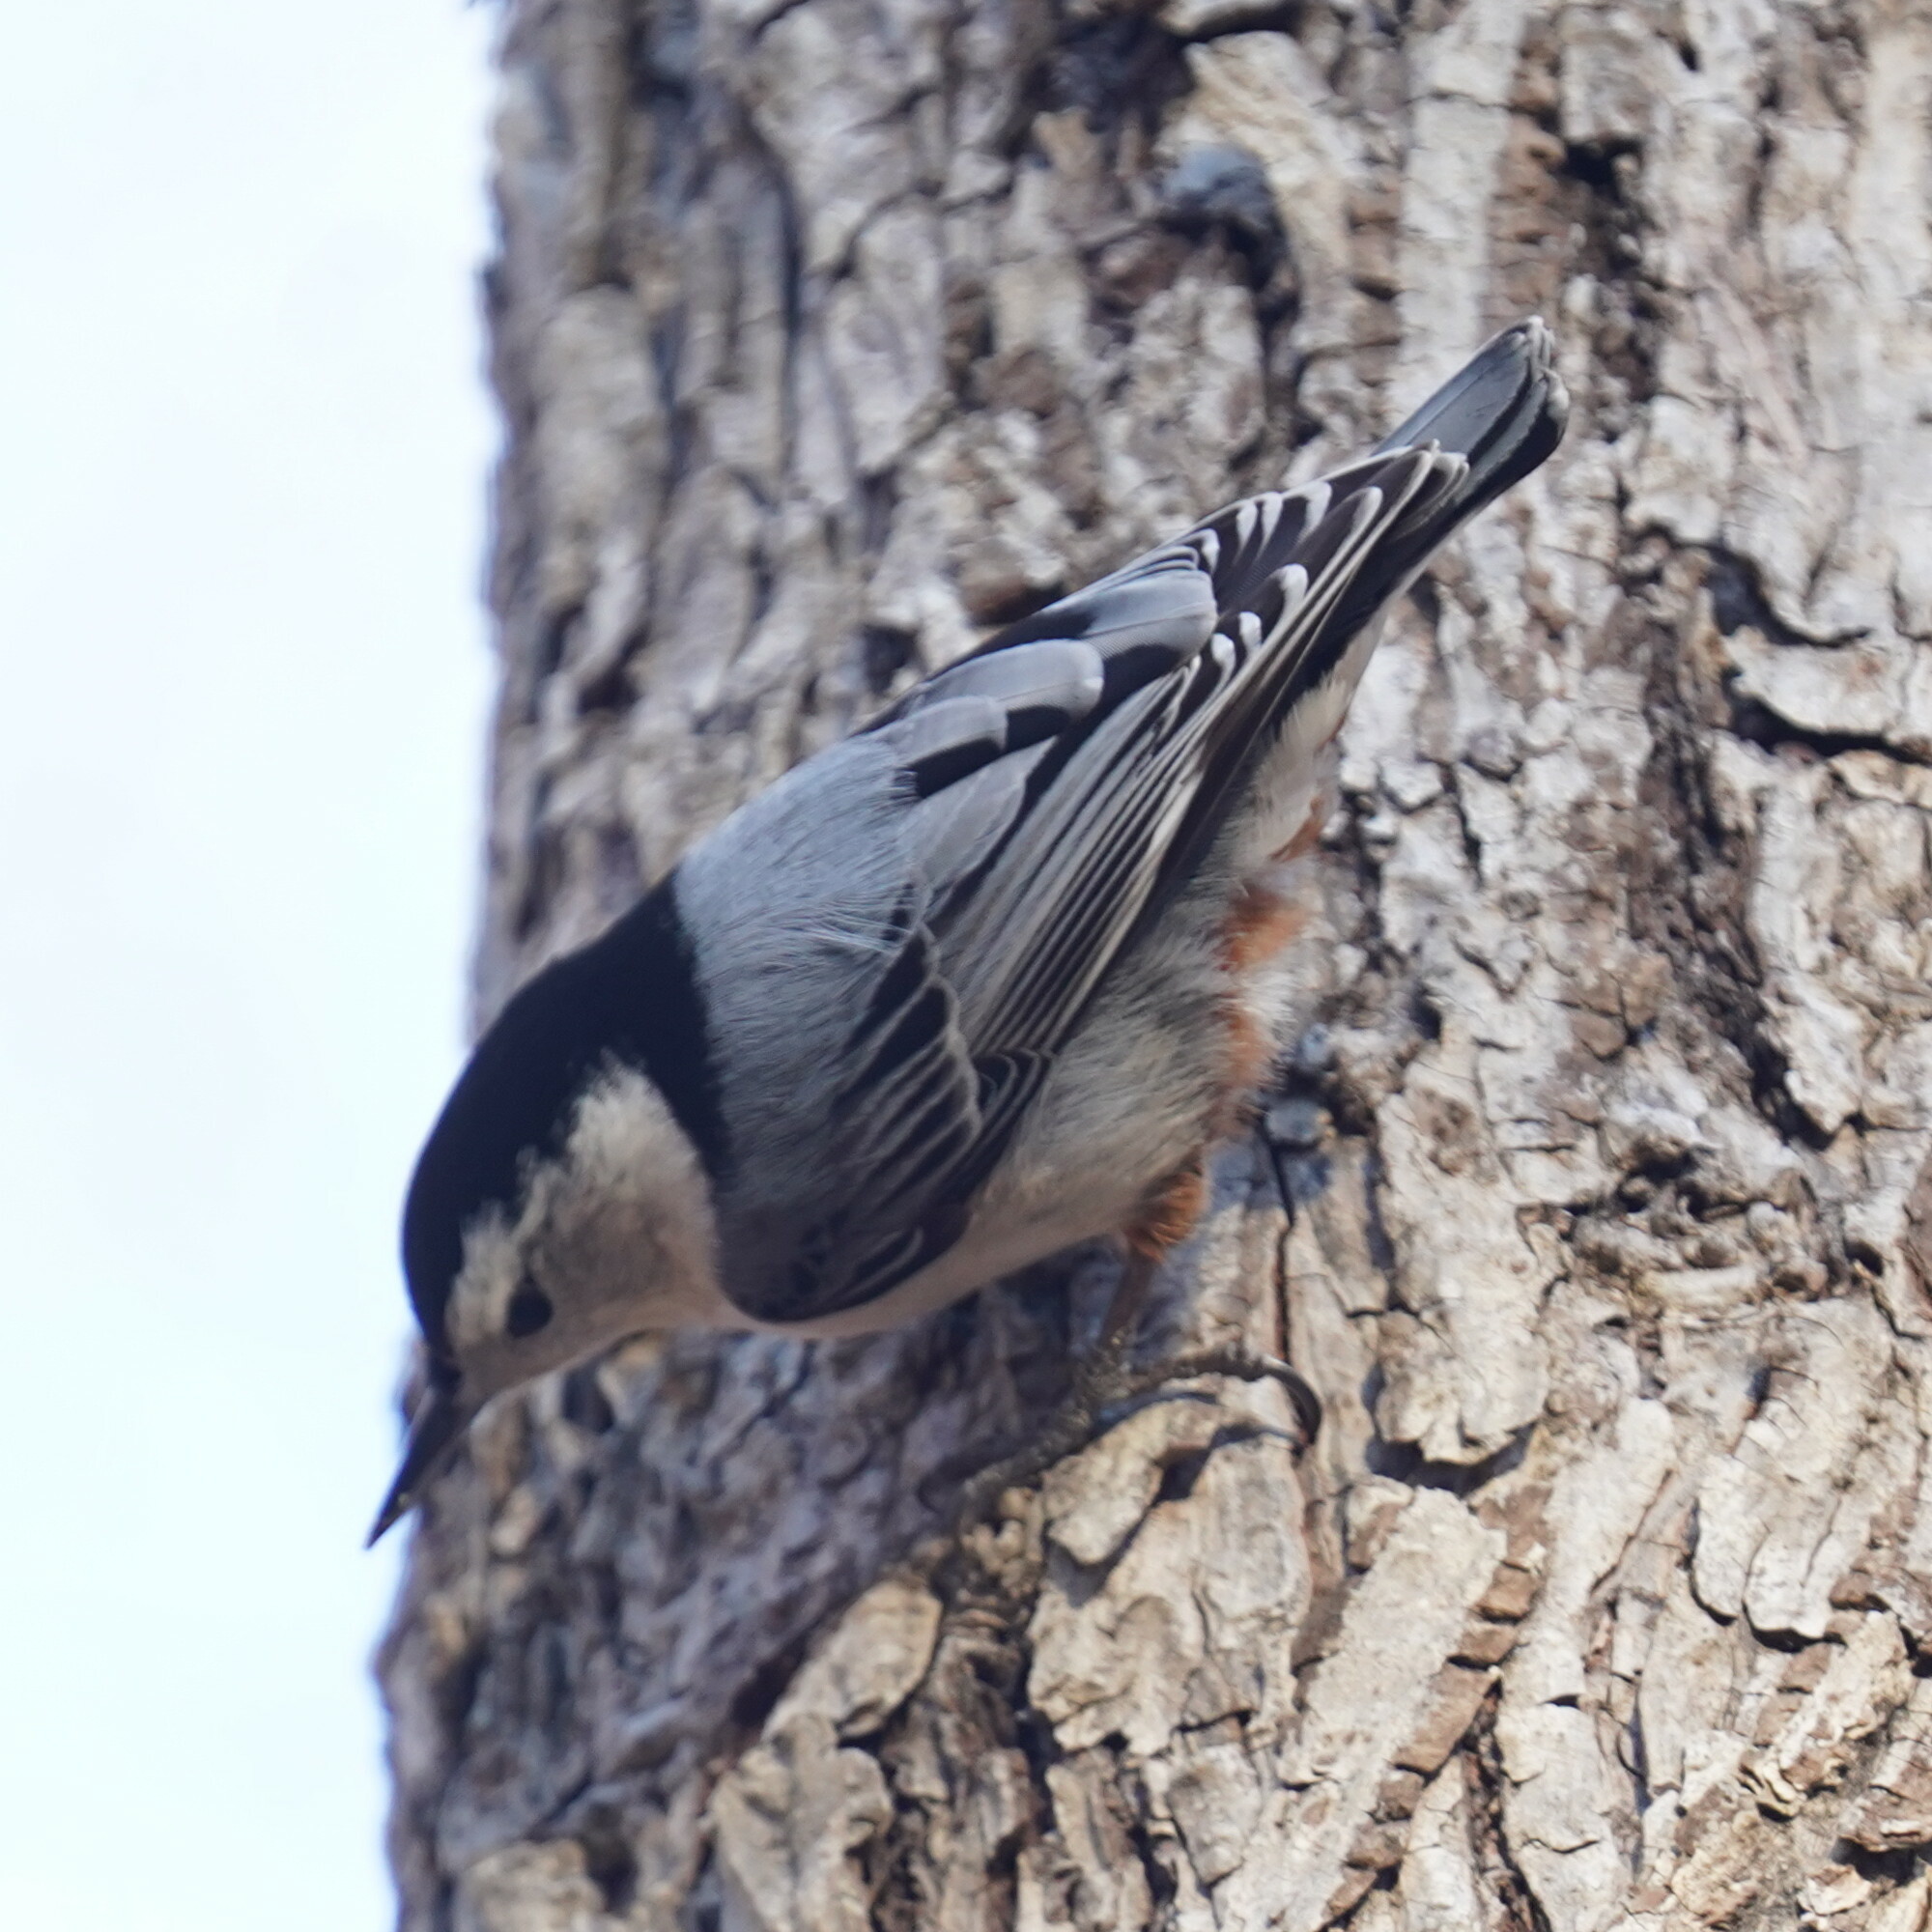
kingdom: Animalia
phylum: Chordata
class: Aves
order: Passeriformes
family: Sittidae
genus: Sitta
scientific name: Sitta carolinensis
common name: White-breasted nuthatch
